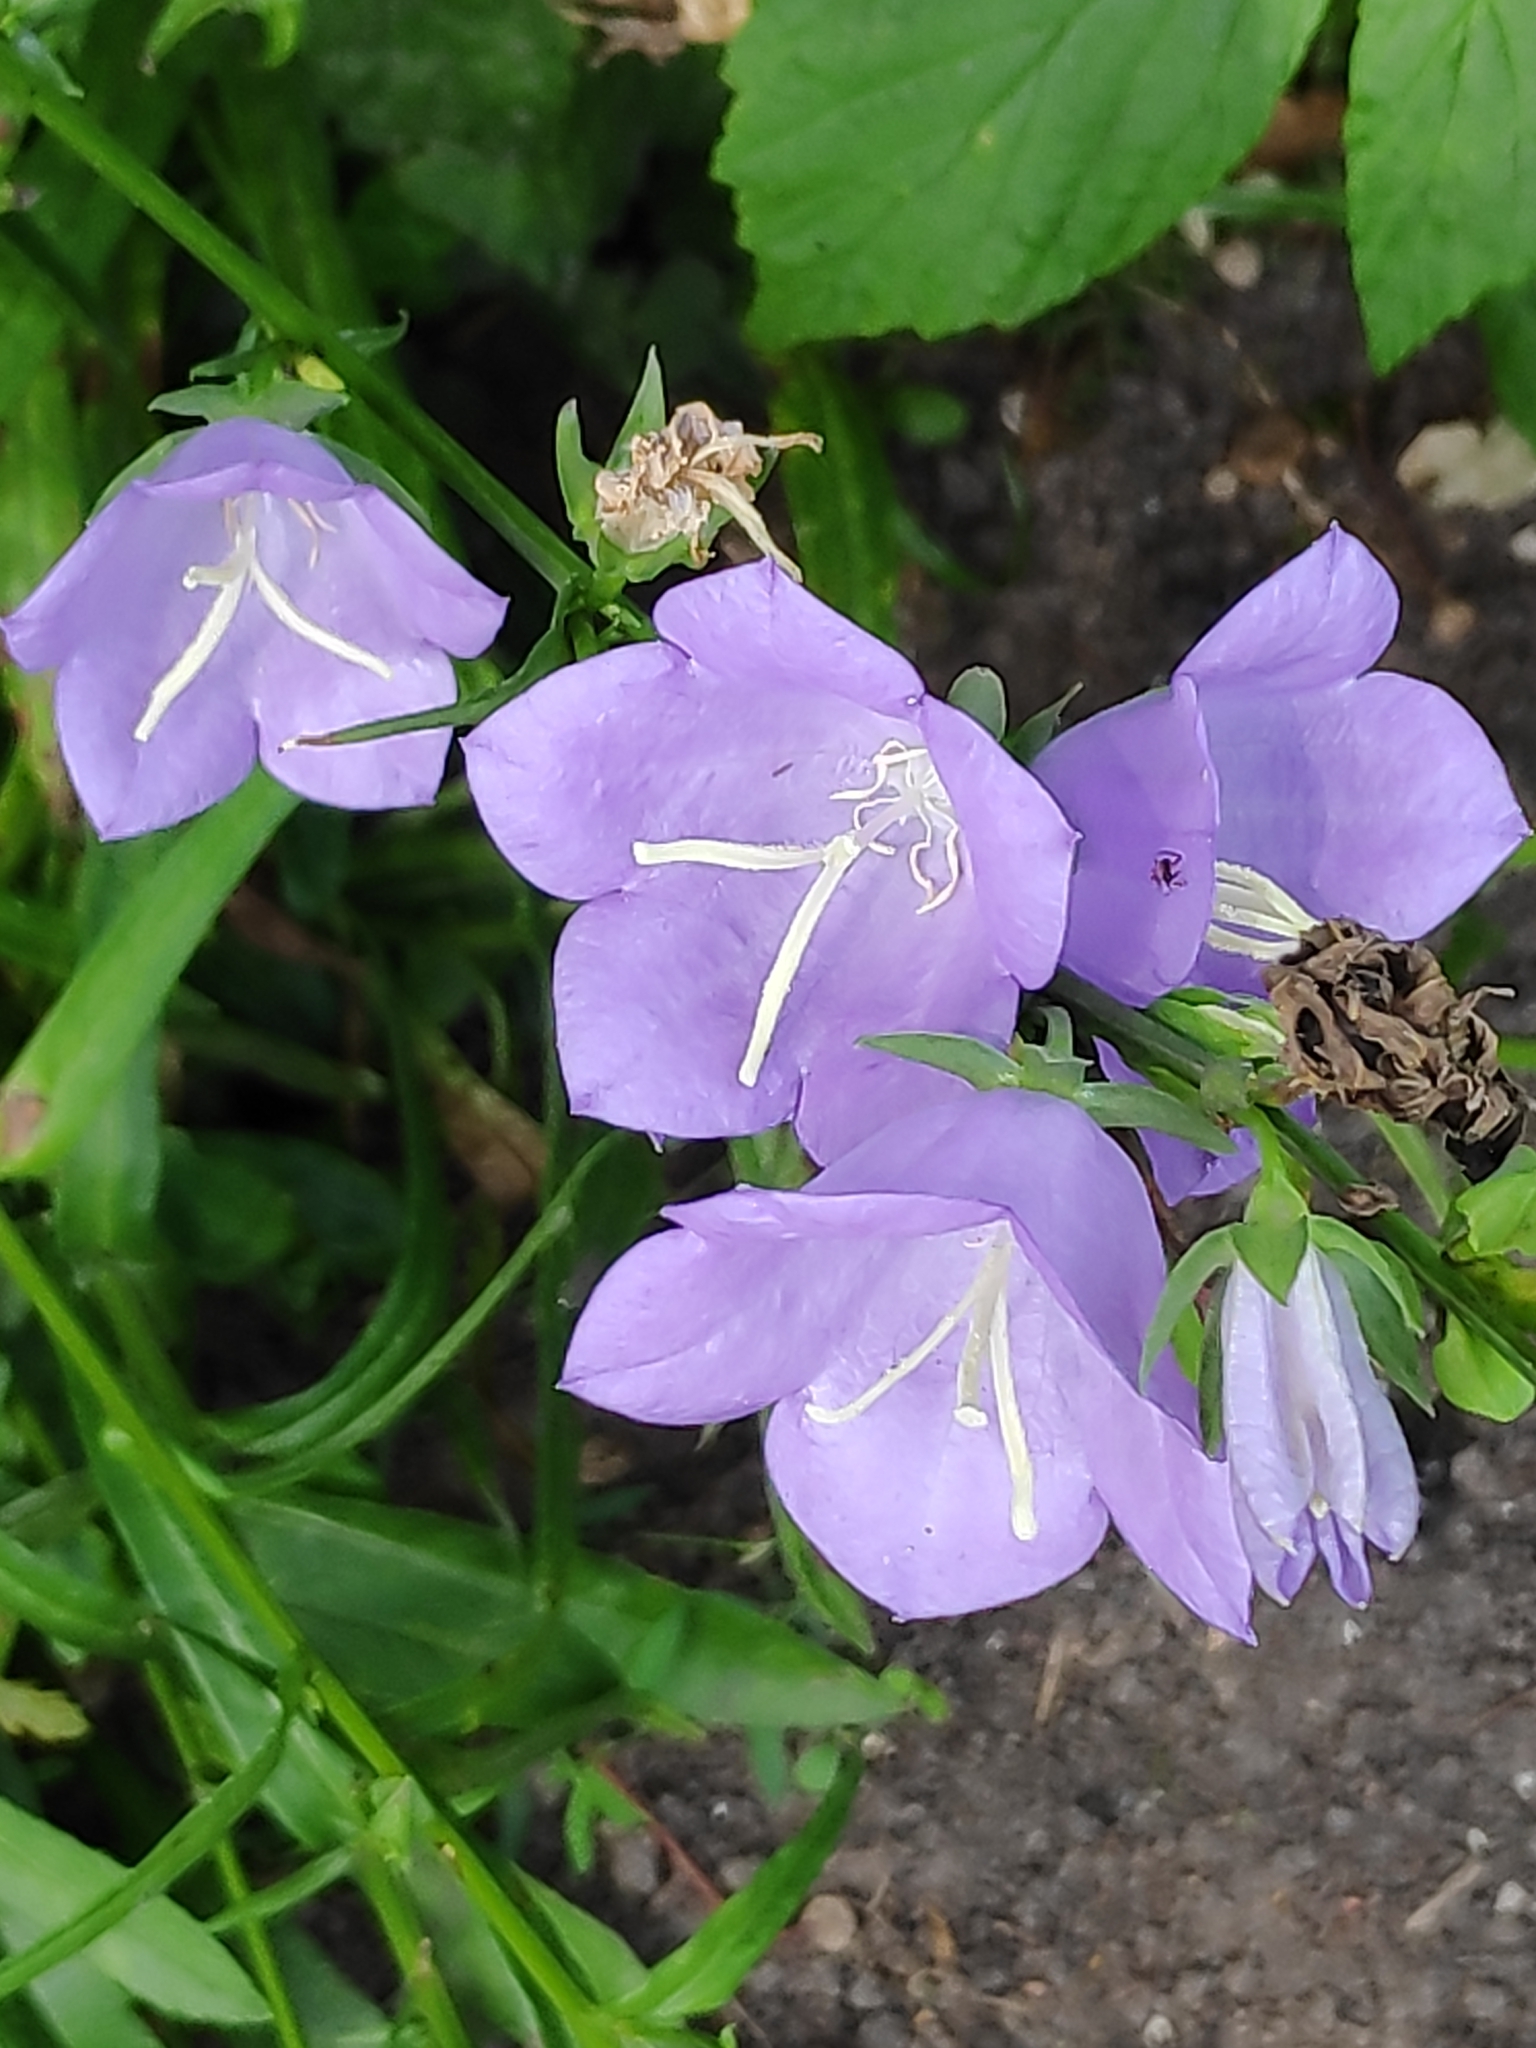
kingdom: Plantae
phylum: Tracheophyta
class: Magnoliopsida
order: Asterales
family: Campanulaceae
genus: Campanula
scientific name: Campanula persicifolia
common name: Peach-leaved bellflower
